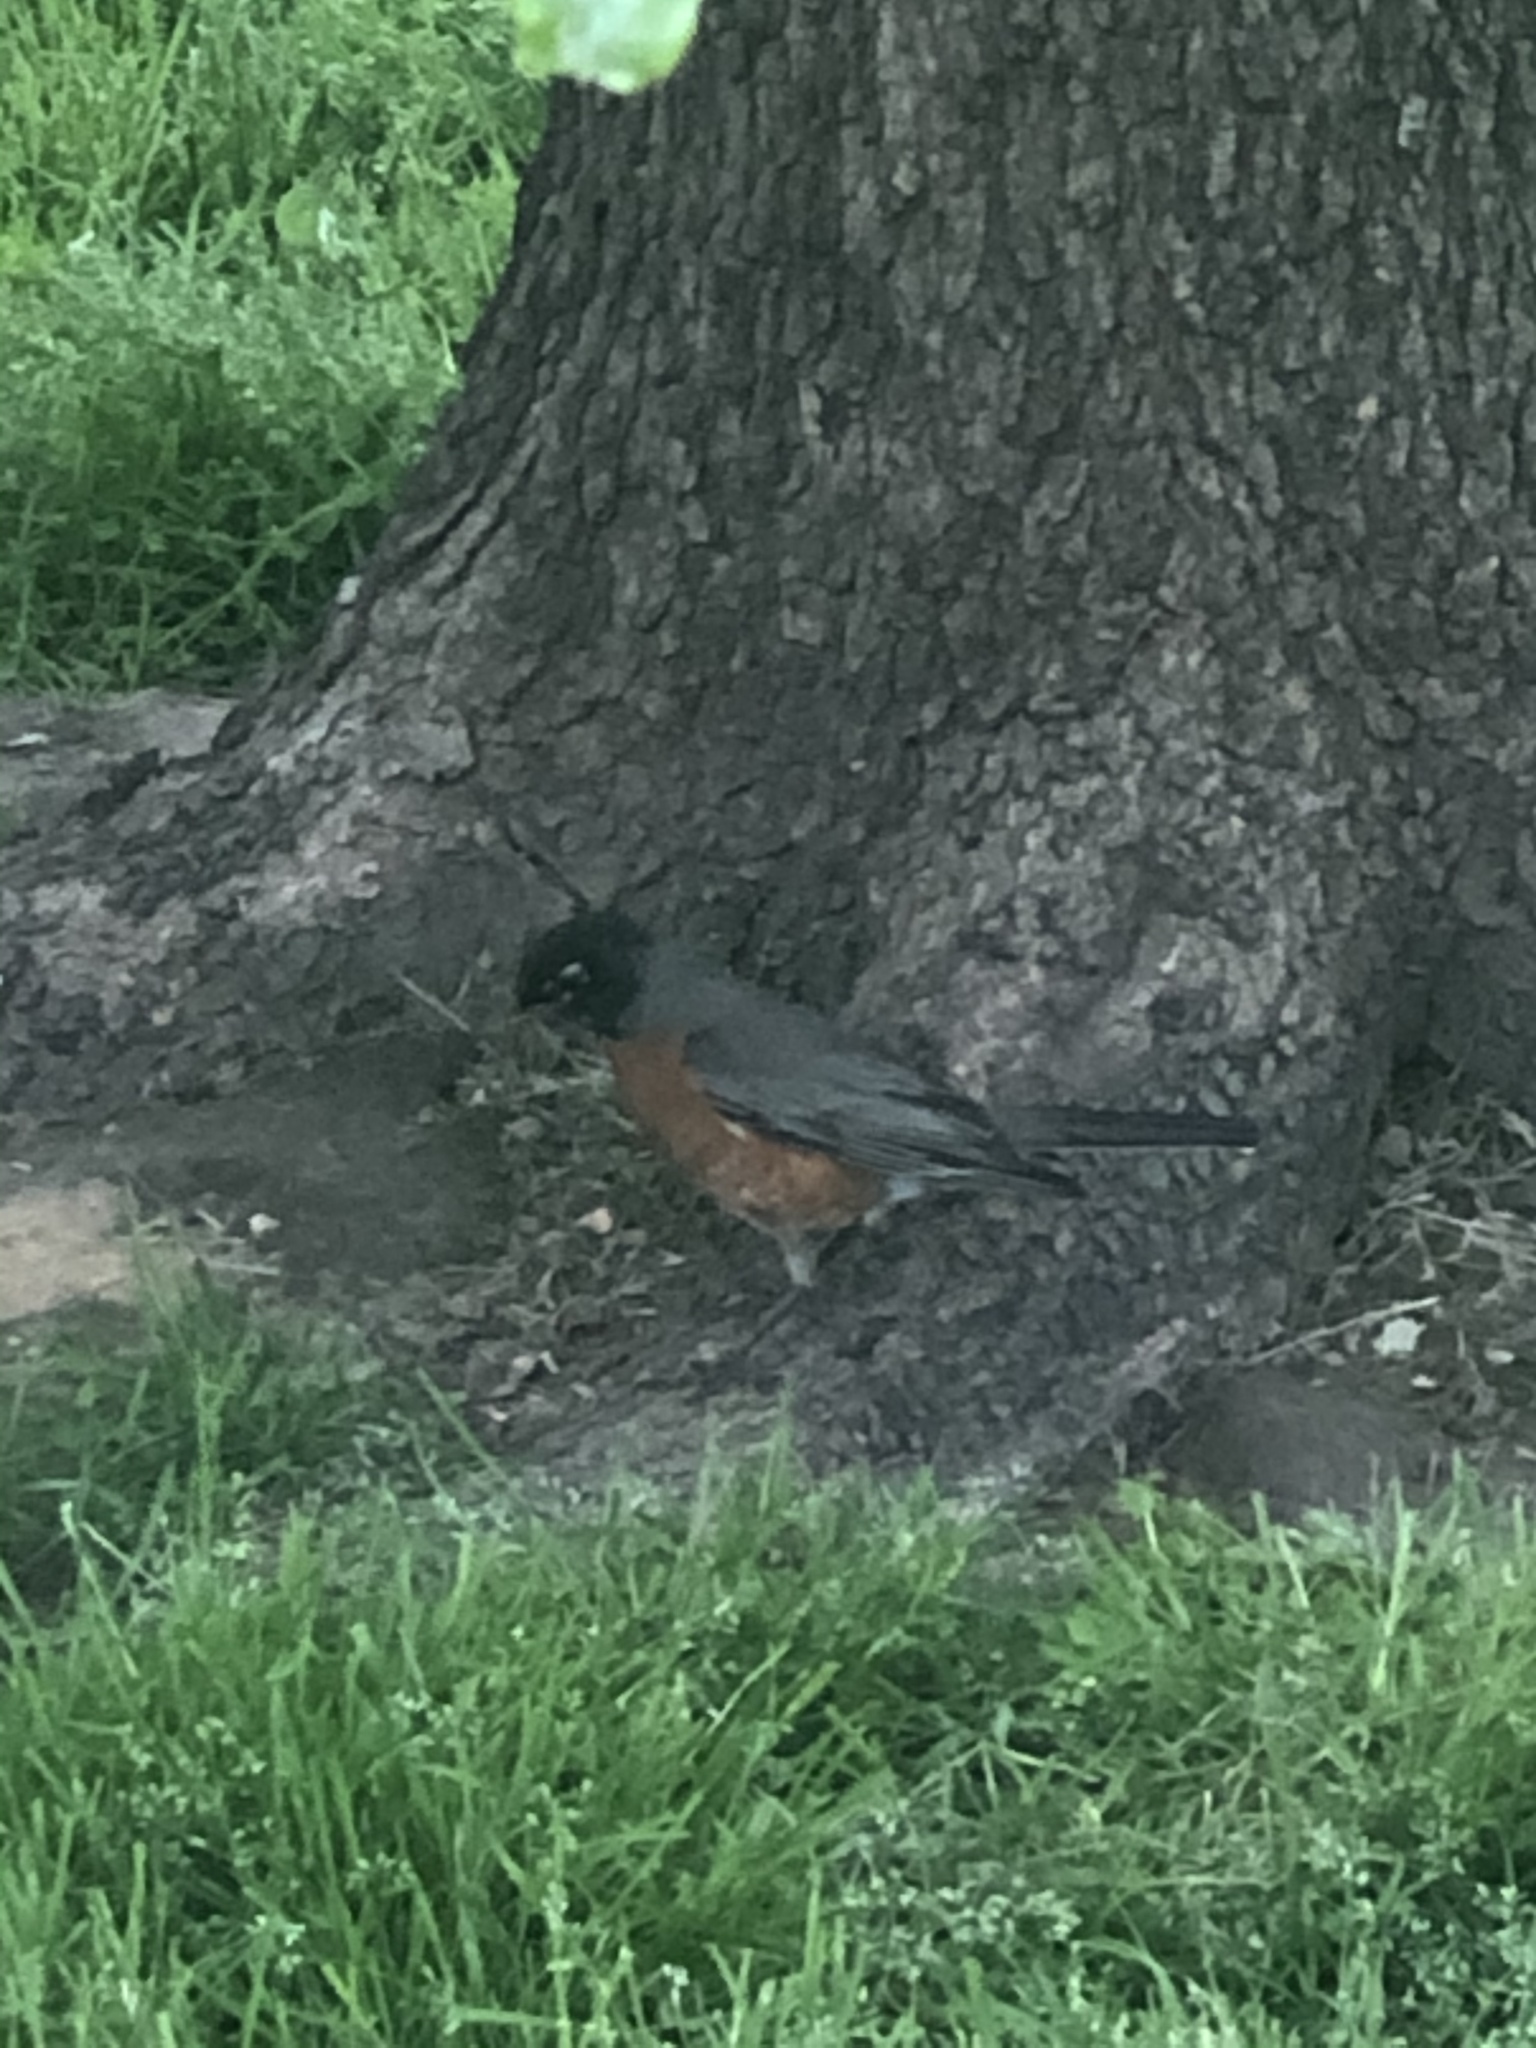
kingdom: Animalia
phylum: Chordata
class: Aves
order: Passeriformes
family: Turdidae
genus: Turdus
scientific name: Turdus migratorius
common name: American robin
